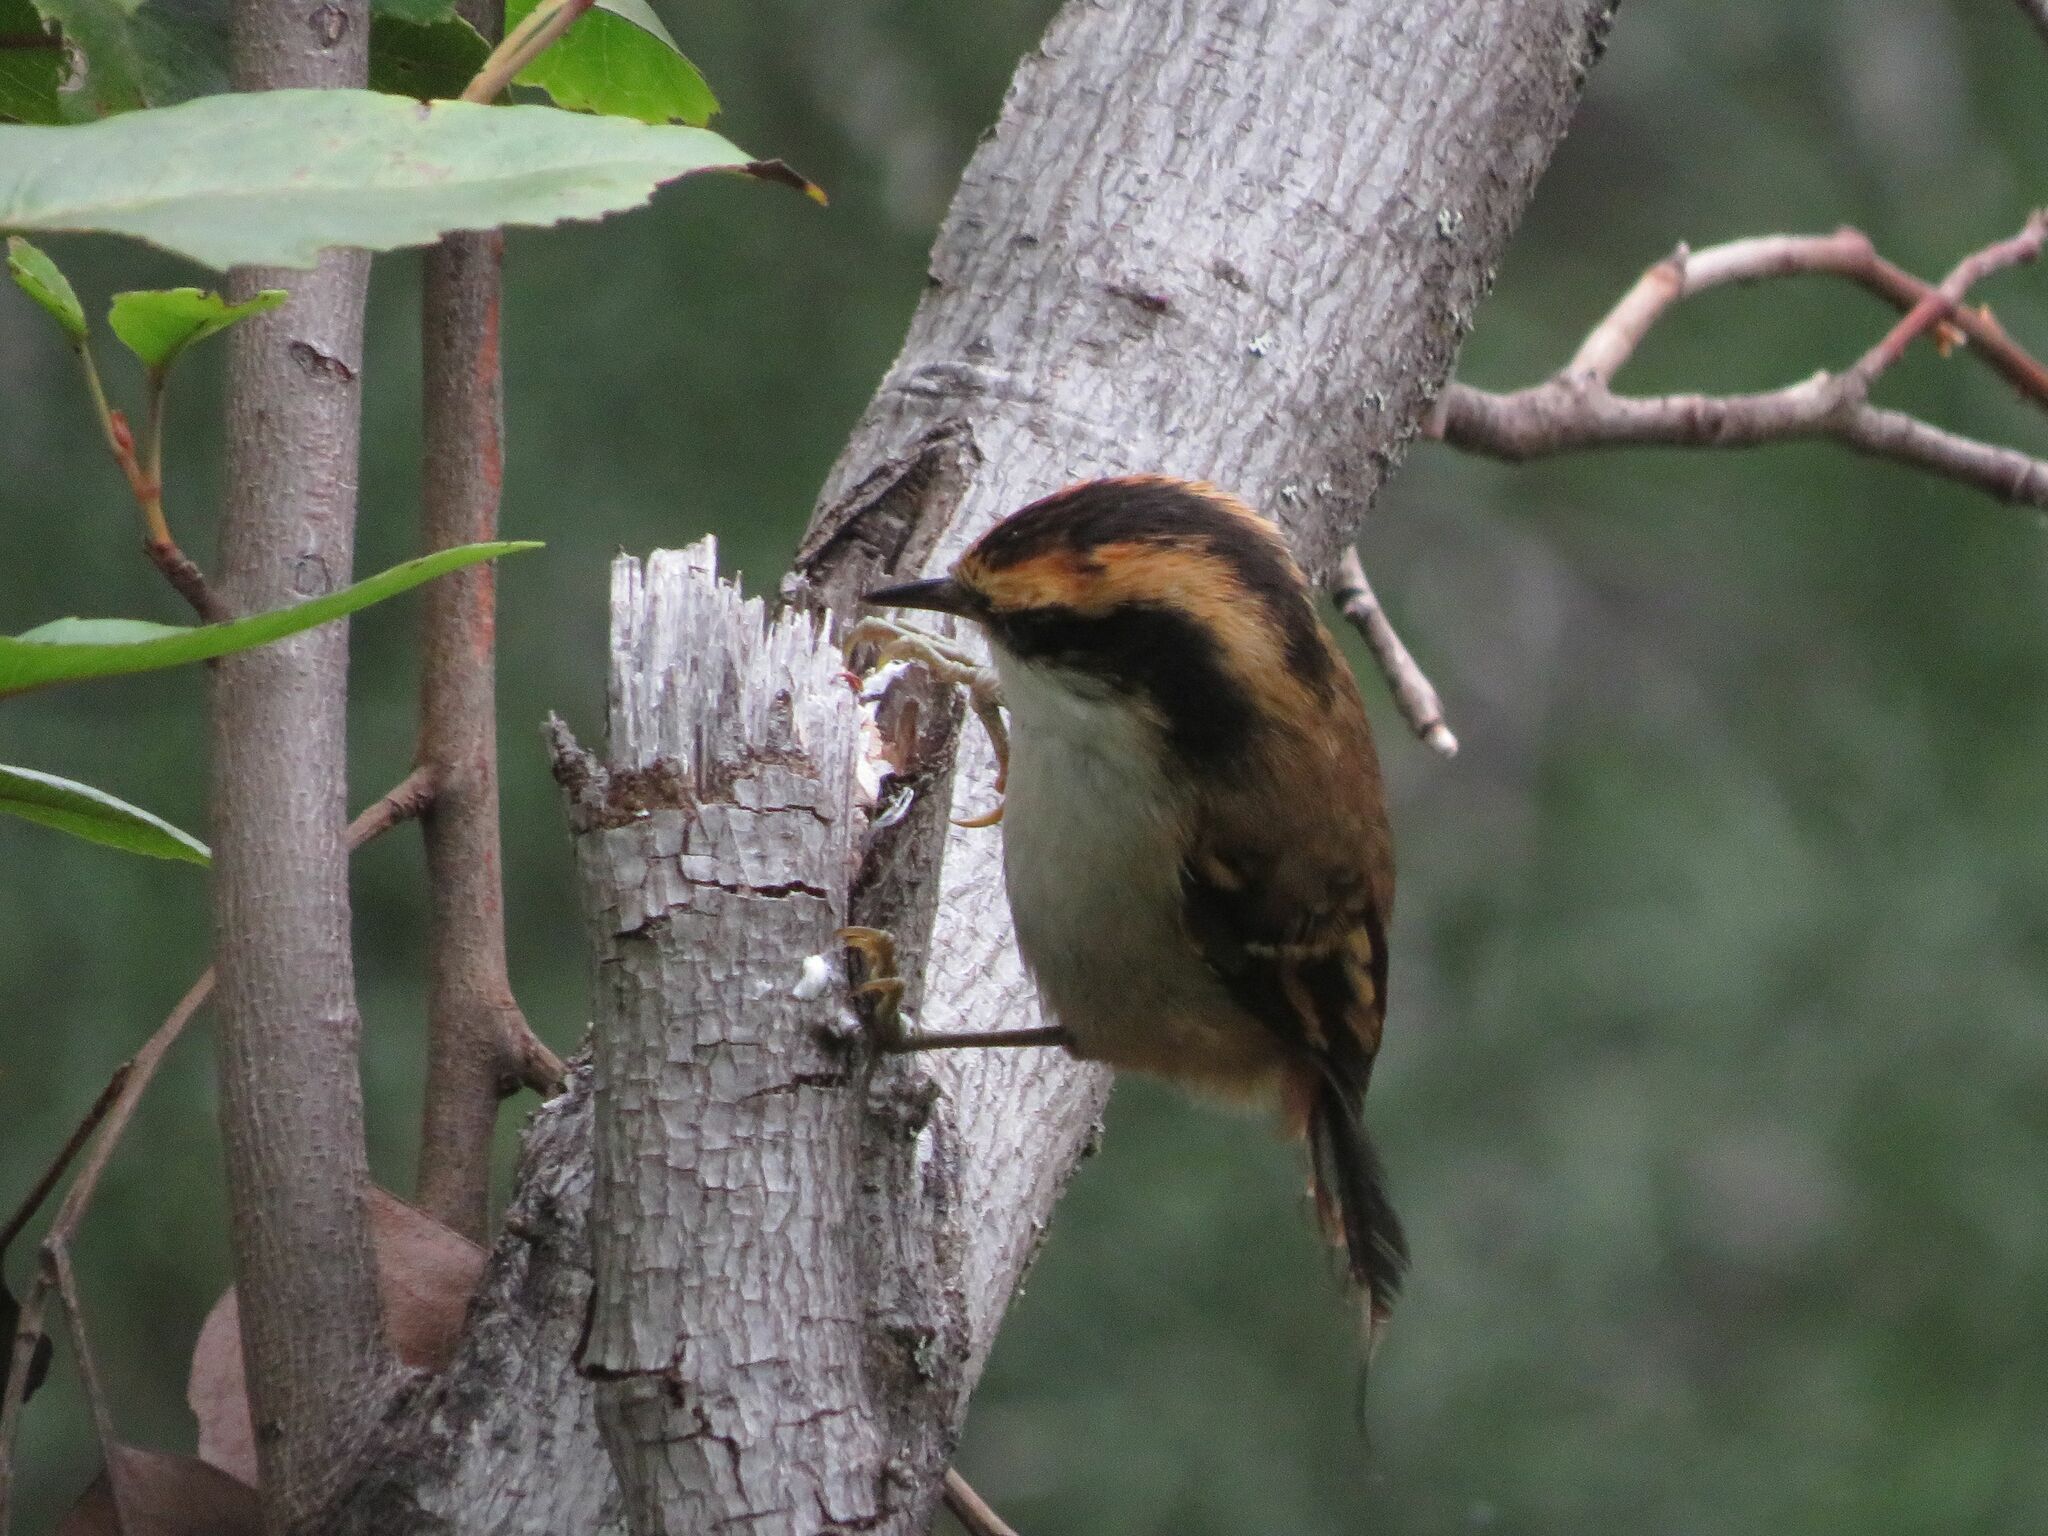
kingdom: Animalia
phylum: Chordata
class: Aves
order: Passeriformes
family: Furnariidae
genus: Aphrastura
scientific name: Aphrastura spinicauda
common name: Thorn-tailed rayadito
